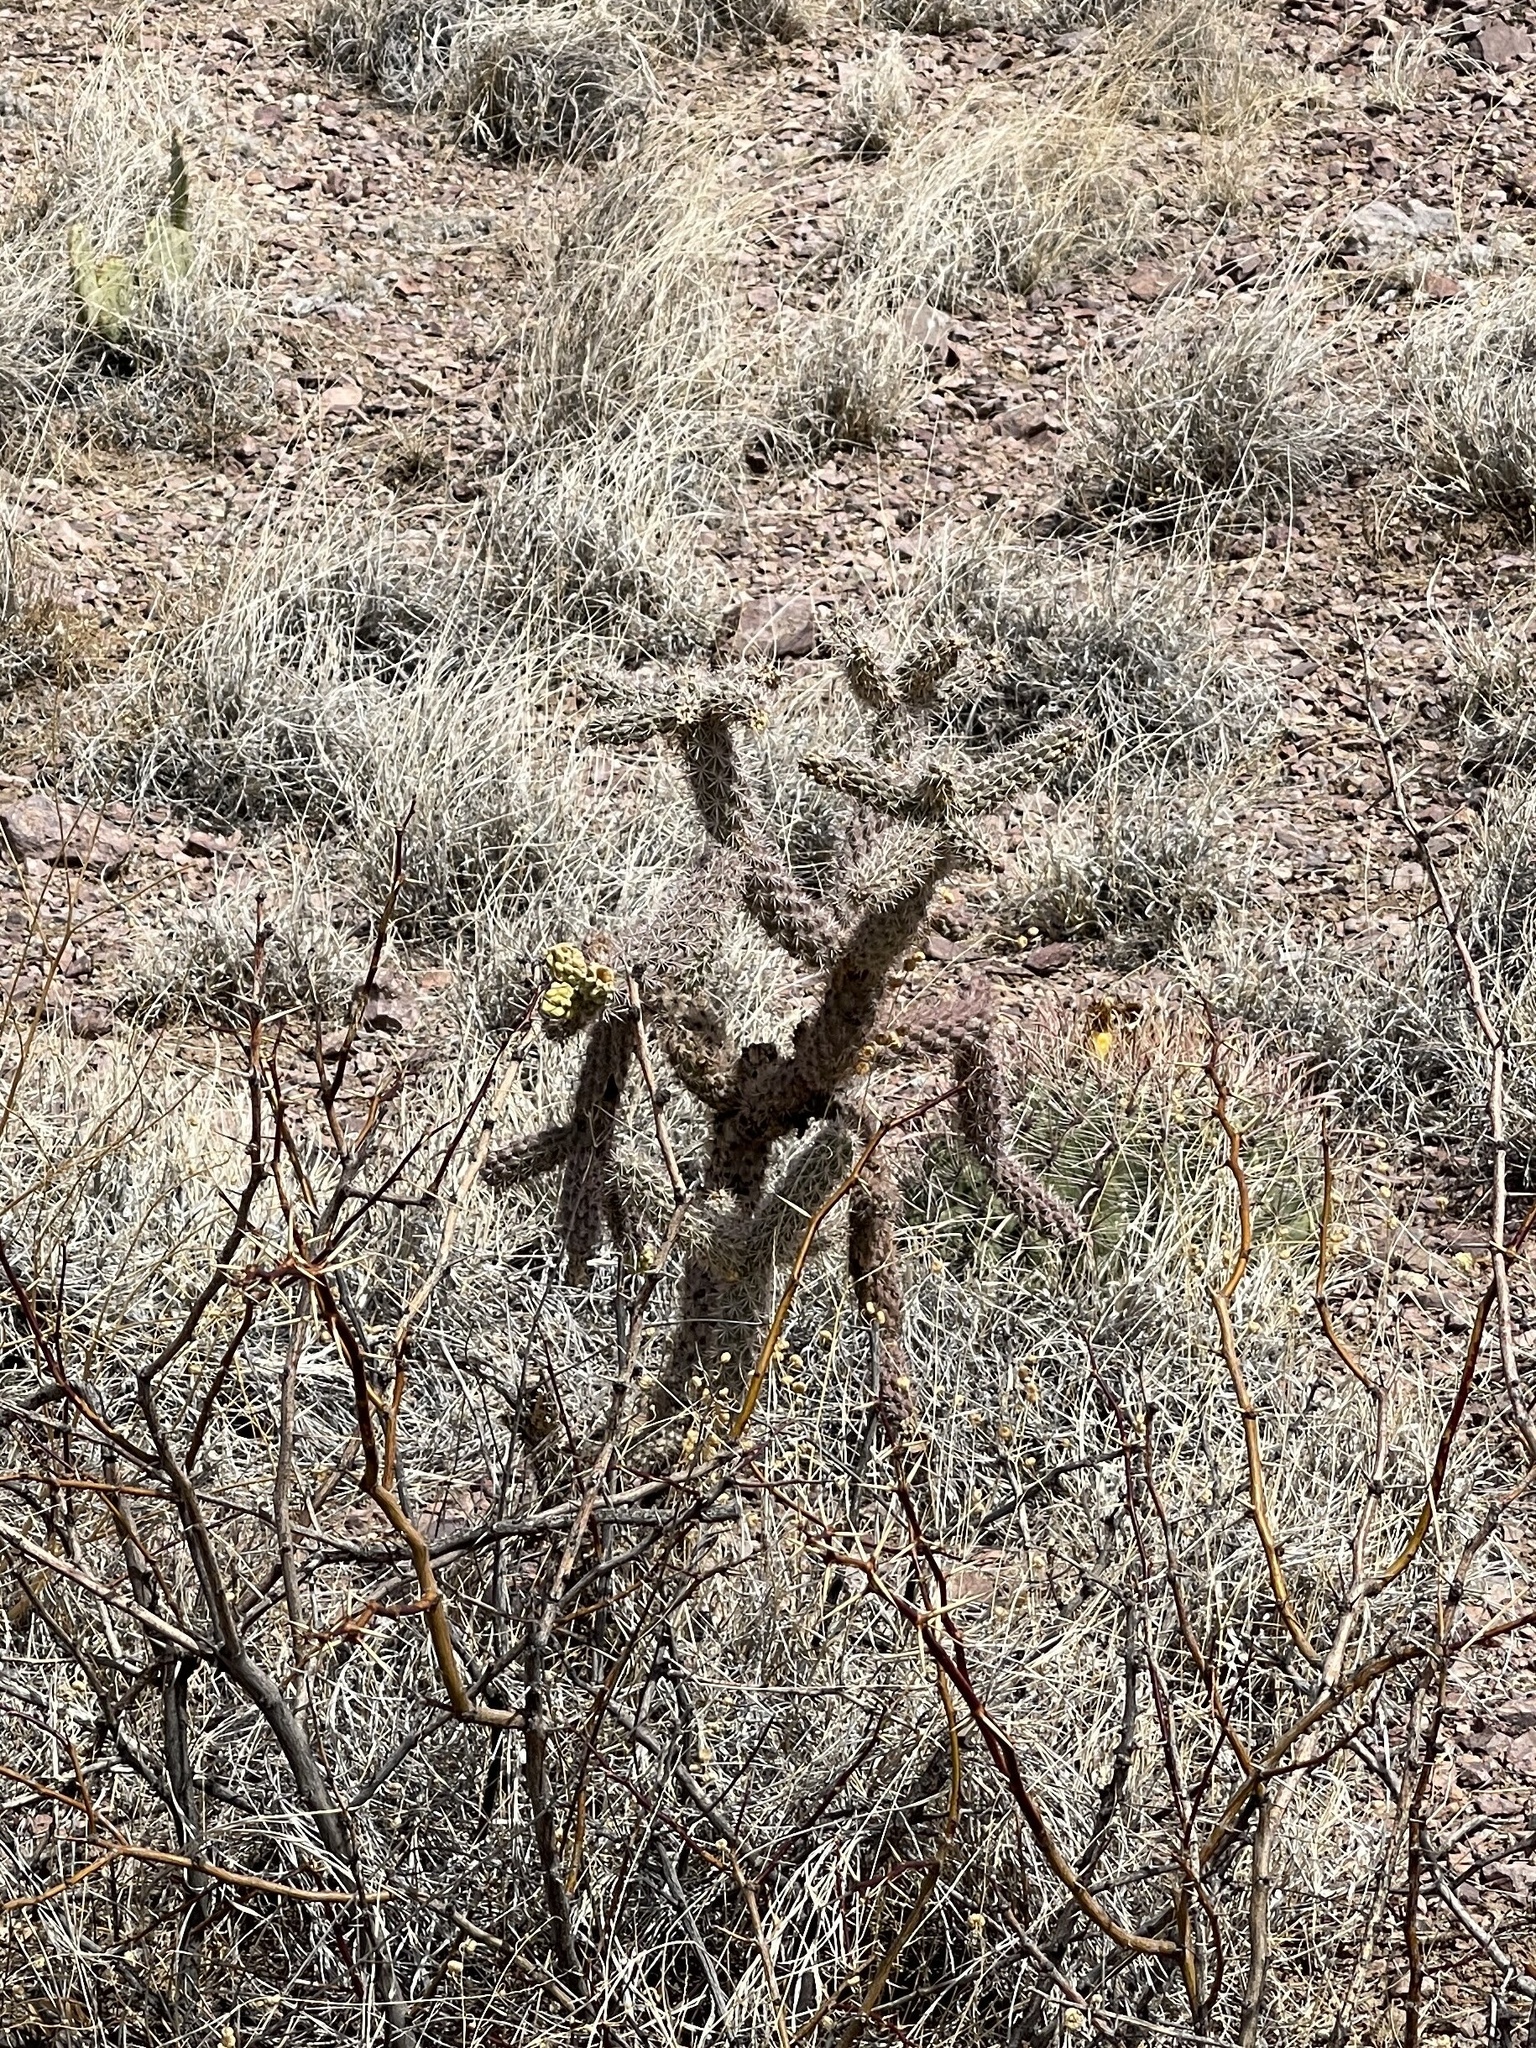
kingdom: Plantae
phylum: Tracheophyta
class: Magnoliopsida
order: Caryophyllales
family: Cactaceae
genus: Cylindropuntia
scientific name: Cylindropuntia imbricata
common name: Candelabrum cactus
